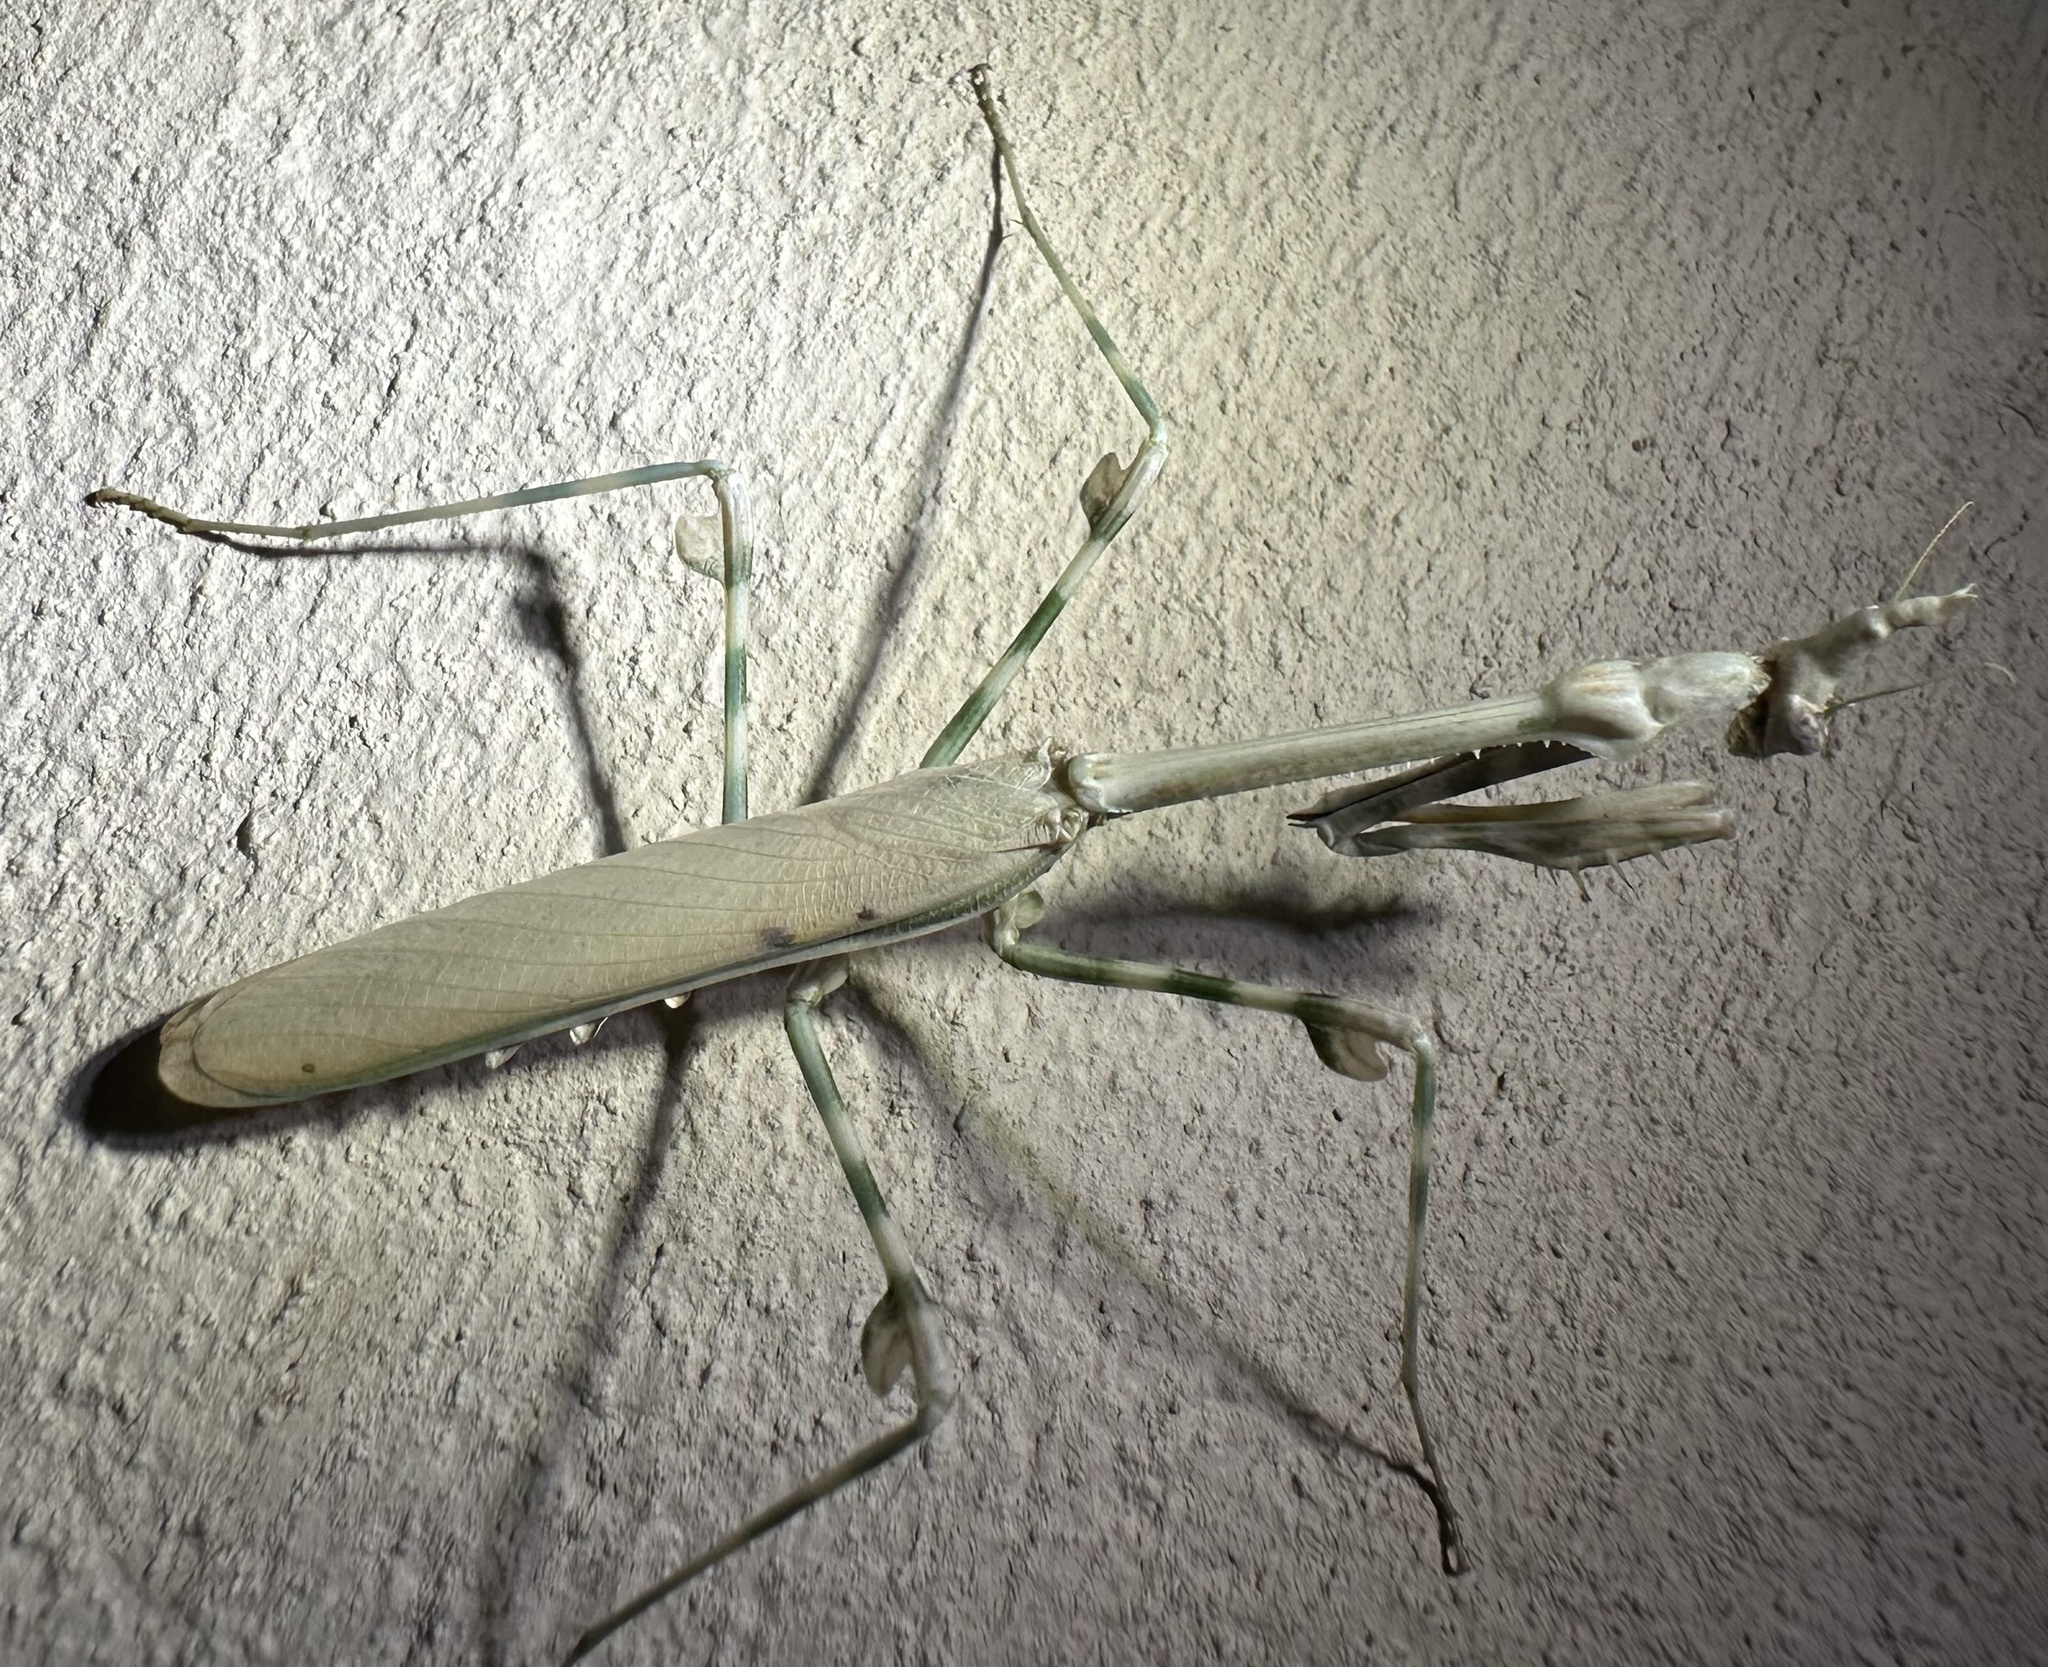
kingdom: Animalia
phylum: Arthropoda
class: Insecta
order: Mantodea
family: Empusidae
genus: Empusa
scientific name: Empusa binotata
